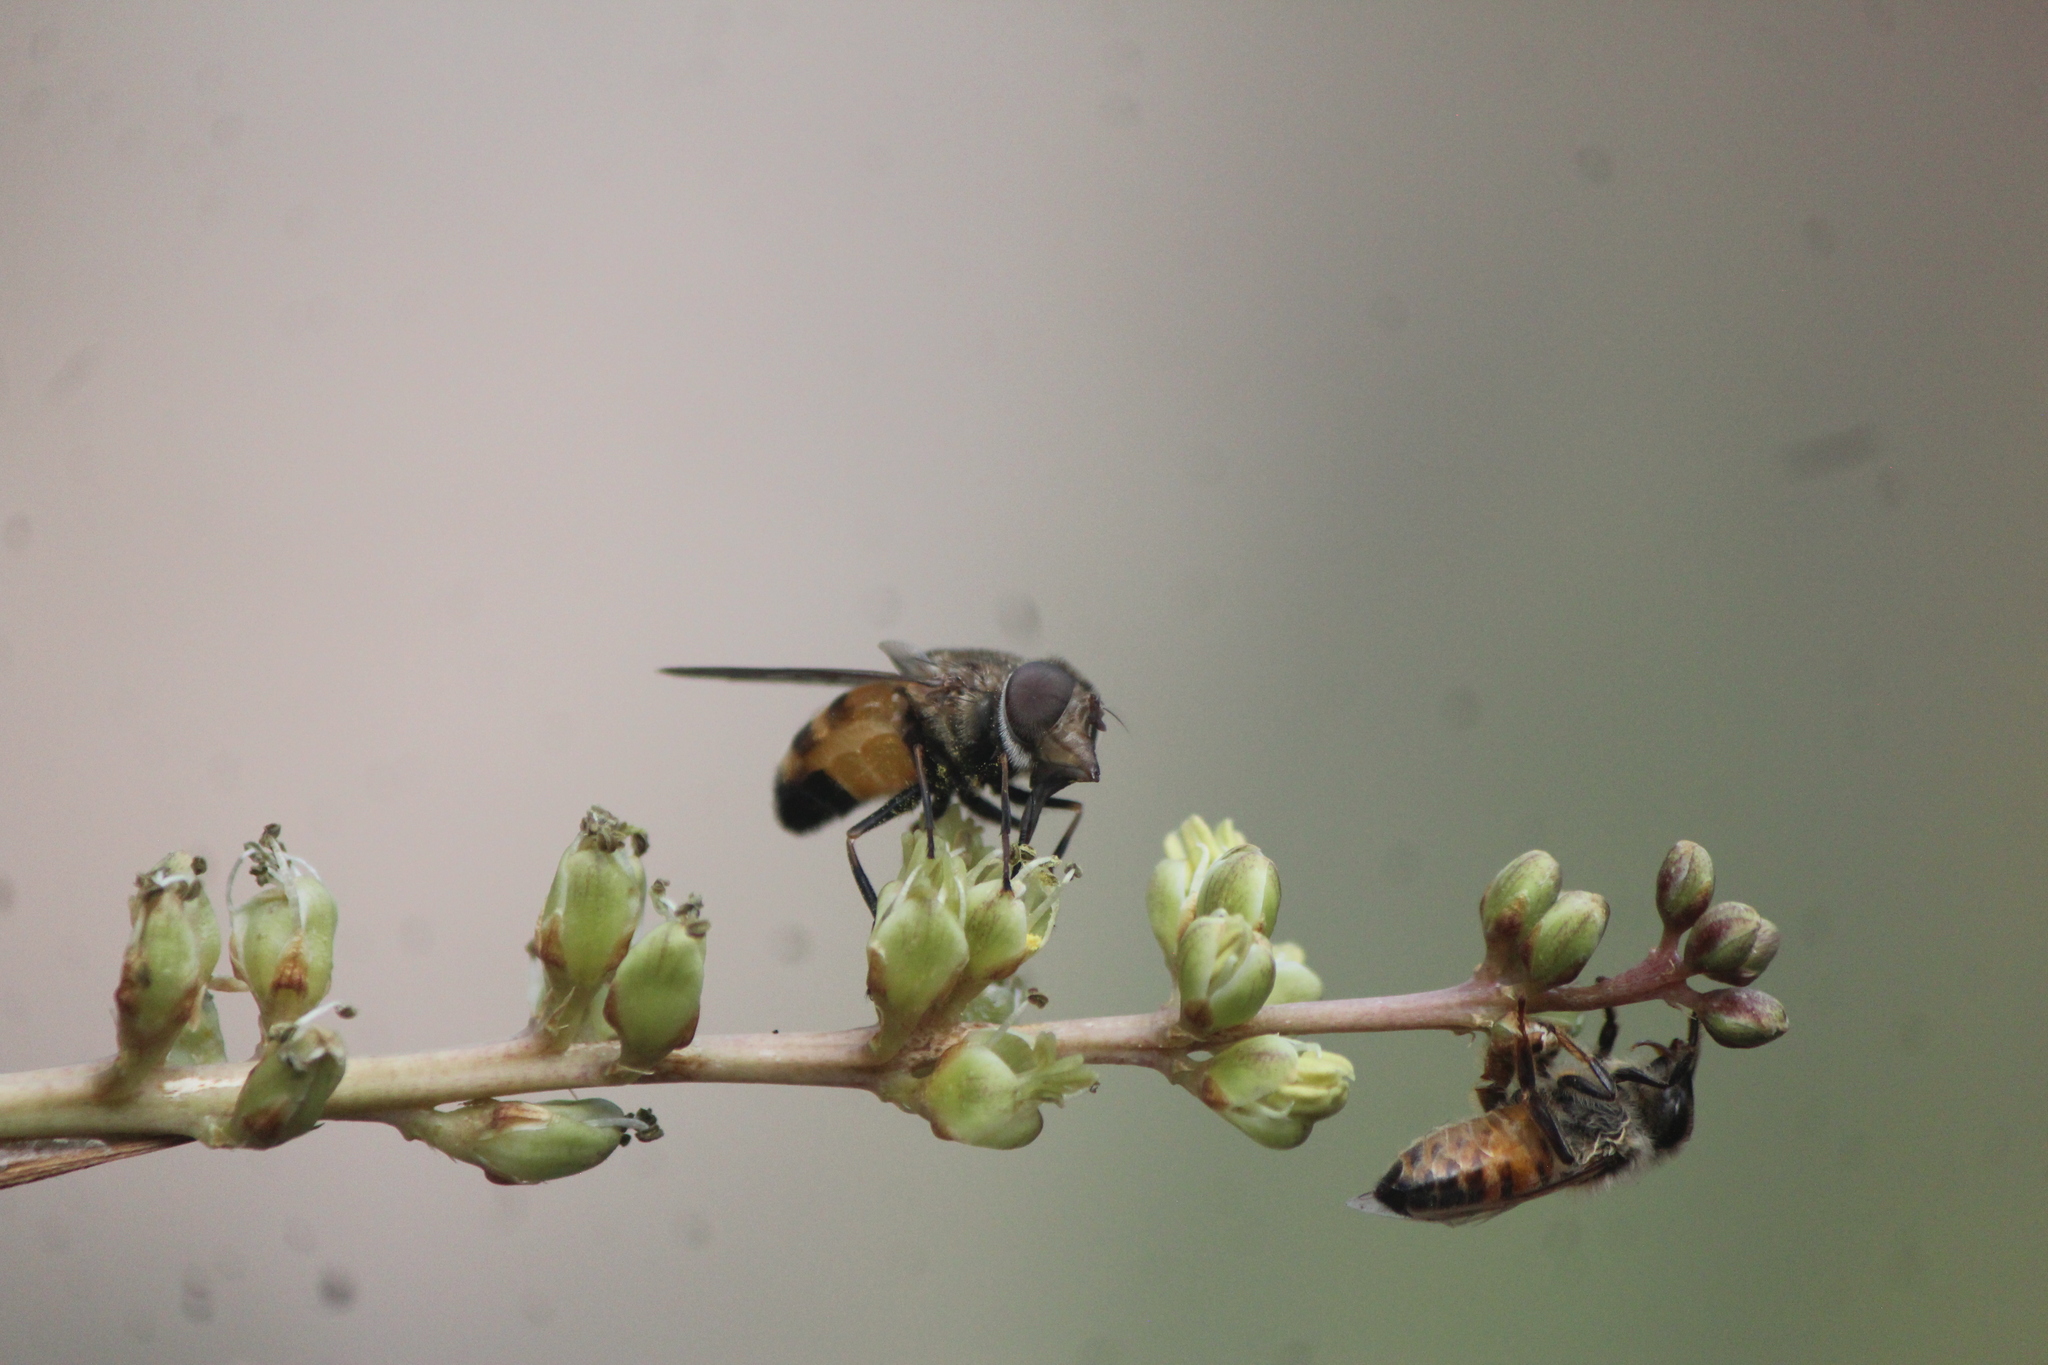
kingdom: Animalia
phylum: Arthropoda
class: Insecta
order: Hymenoptera
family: Apidae
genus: Apis
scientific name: Apis mellifera
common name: Honey bee
